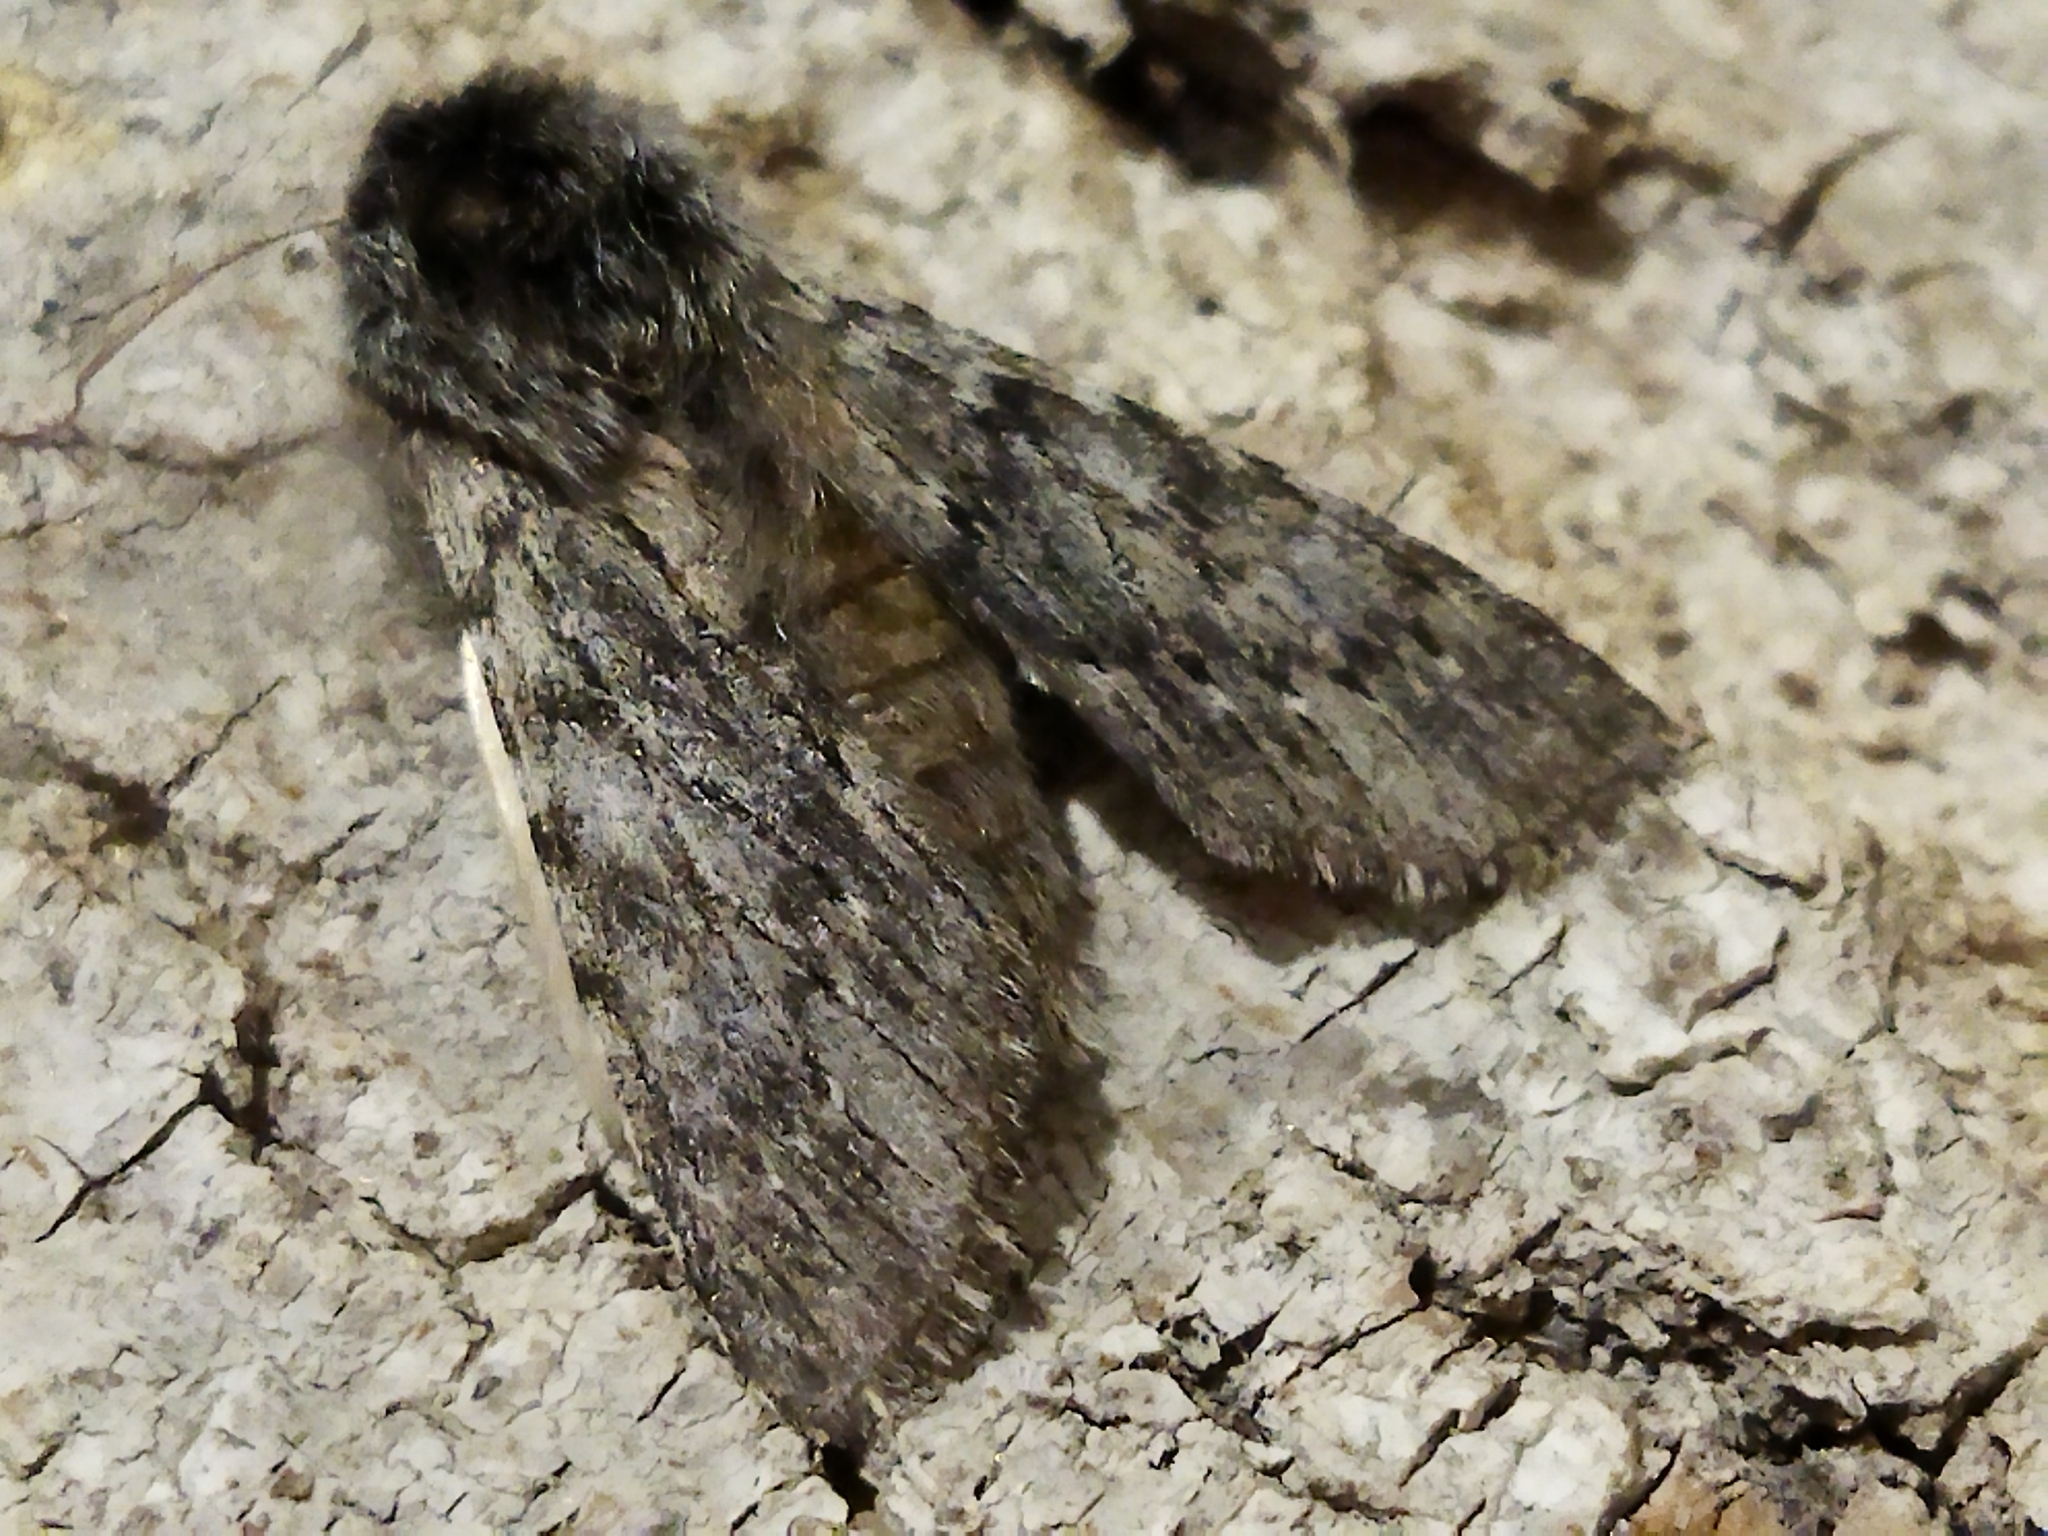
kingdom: Animalia
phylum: Arthropoda
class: Insecta
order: Lepidoptera
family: Notodontidae
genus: Dicranura
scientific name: Dicranura ulmi
